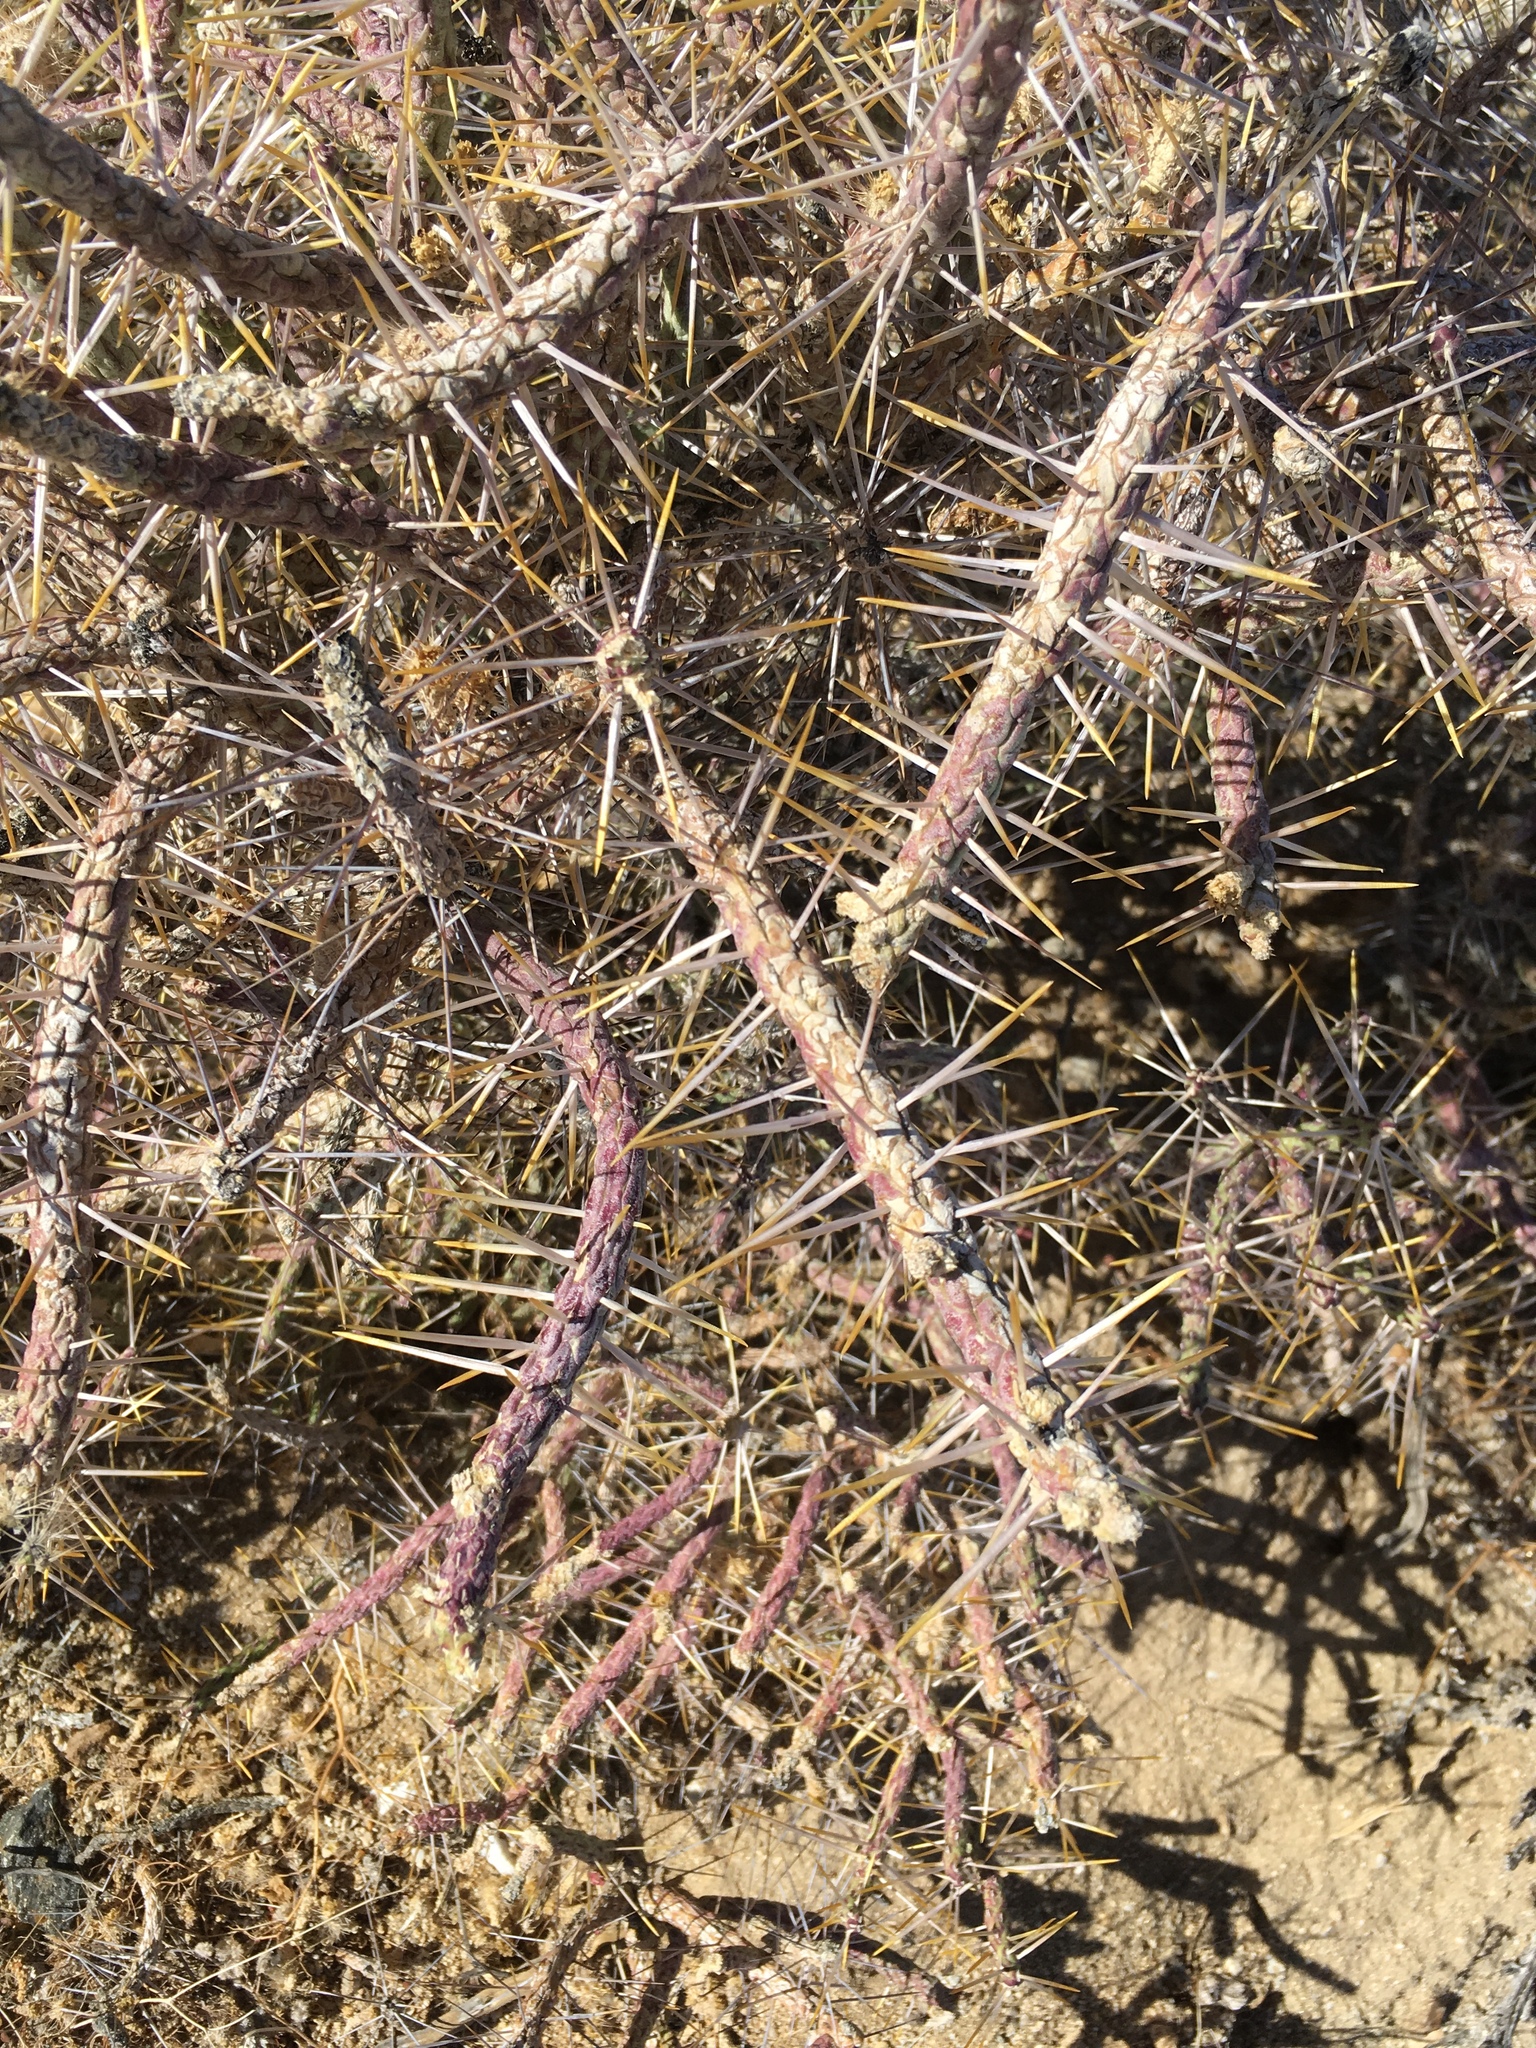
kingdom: Plantae
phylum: Tracheophyta
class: Magnoliopsida
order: Caryophyllales
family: Cactaceae
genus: Cylindropuntia
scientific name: Cylindropuntia ramosissima
